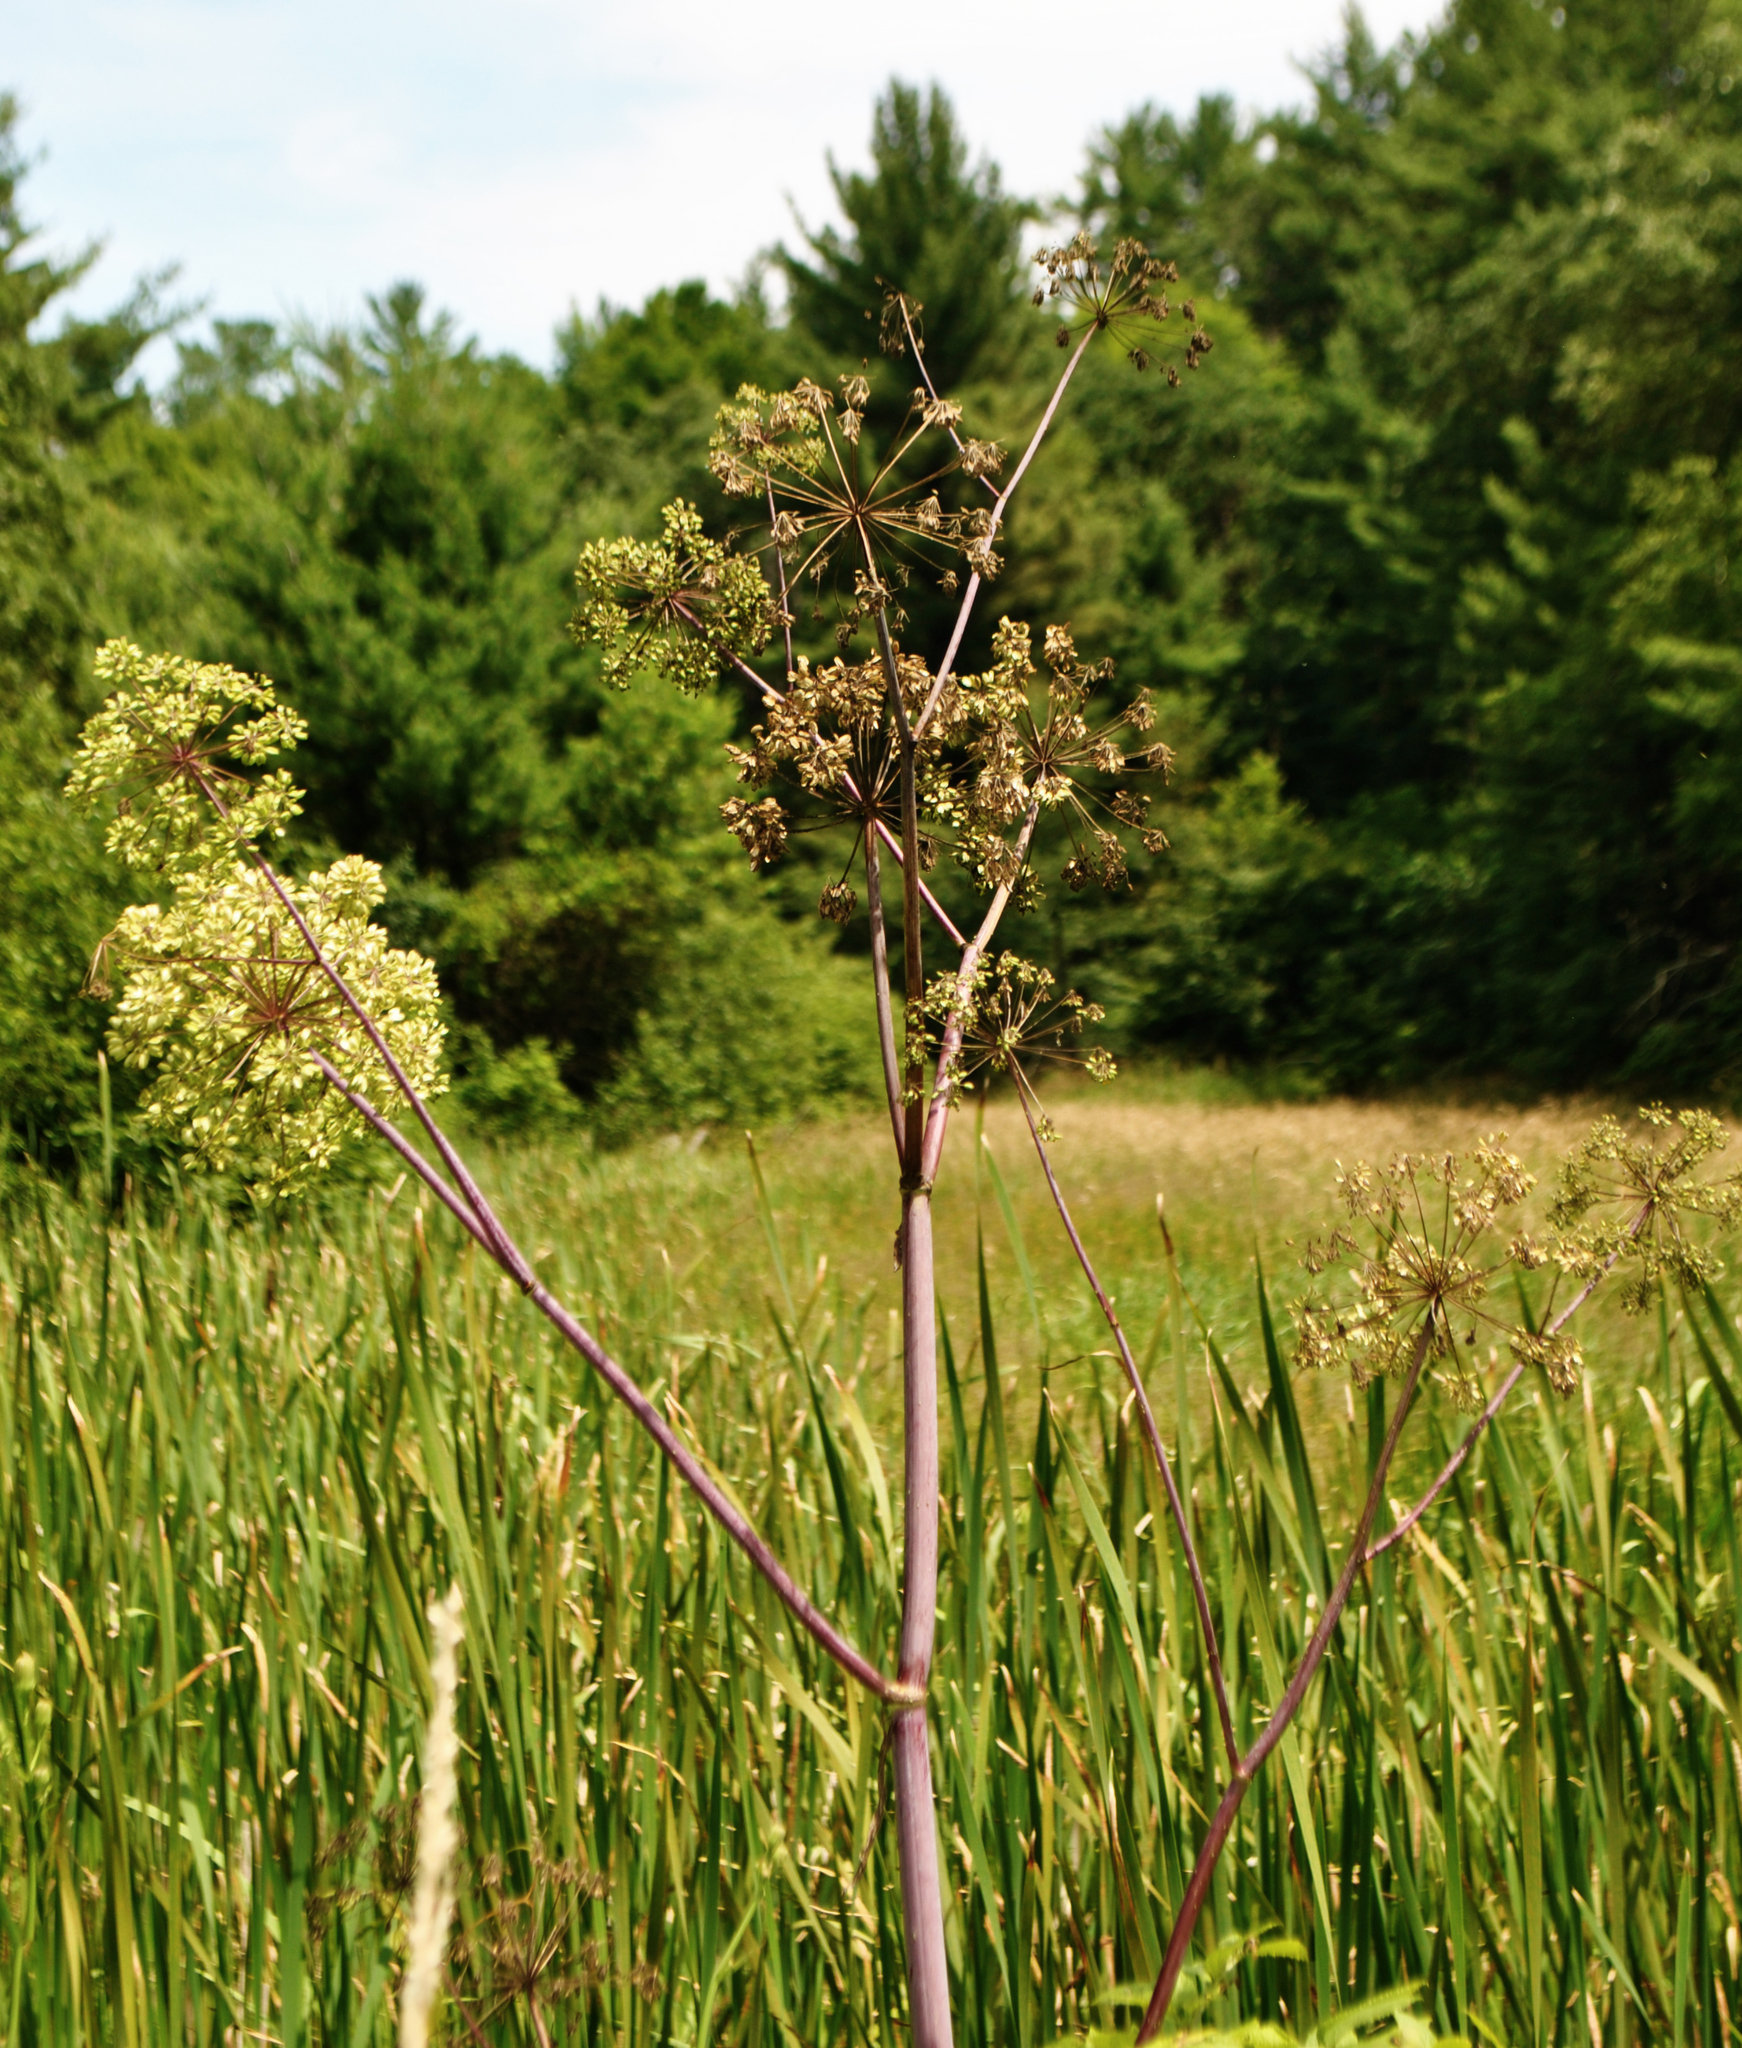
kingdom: Plantae
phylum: Tracheophyta
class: Magnoliopsida
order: Apiales
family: Apiaceae
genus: Angelica
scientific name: Angelica atropurpurea
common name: Great angelica
